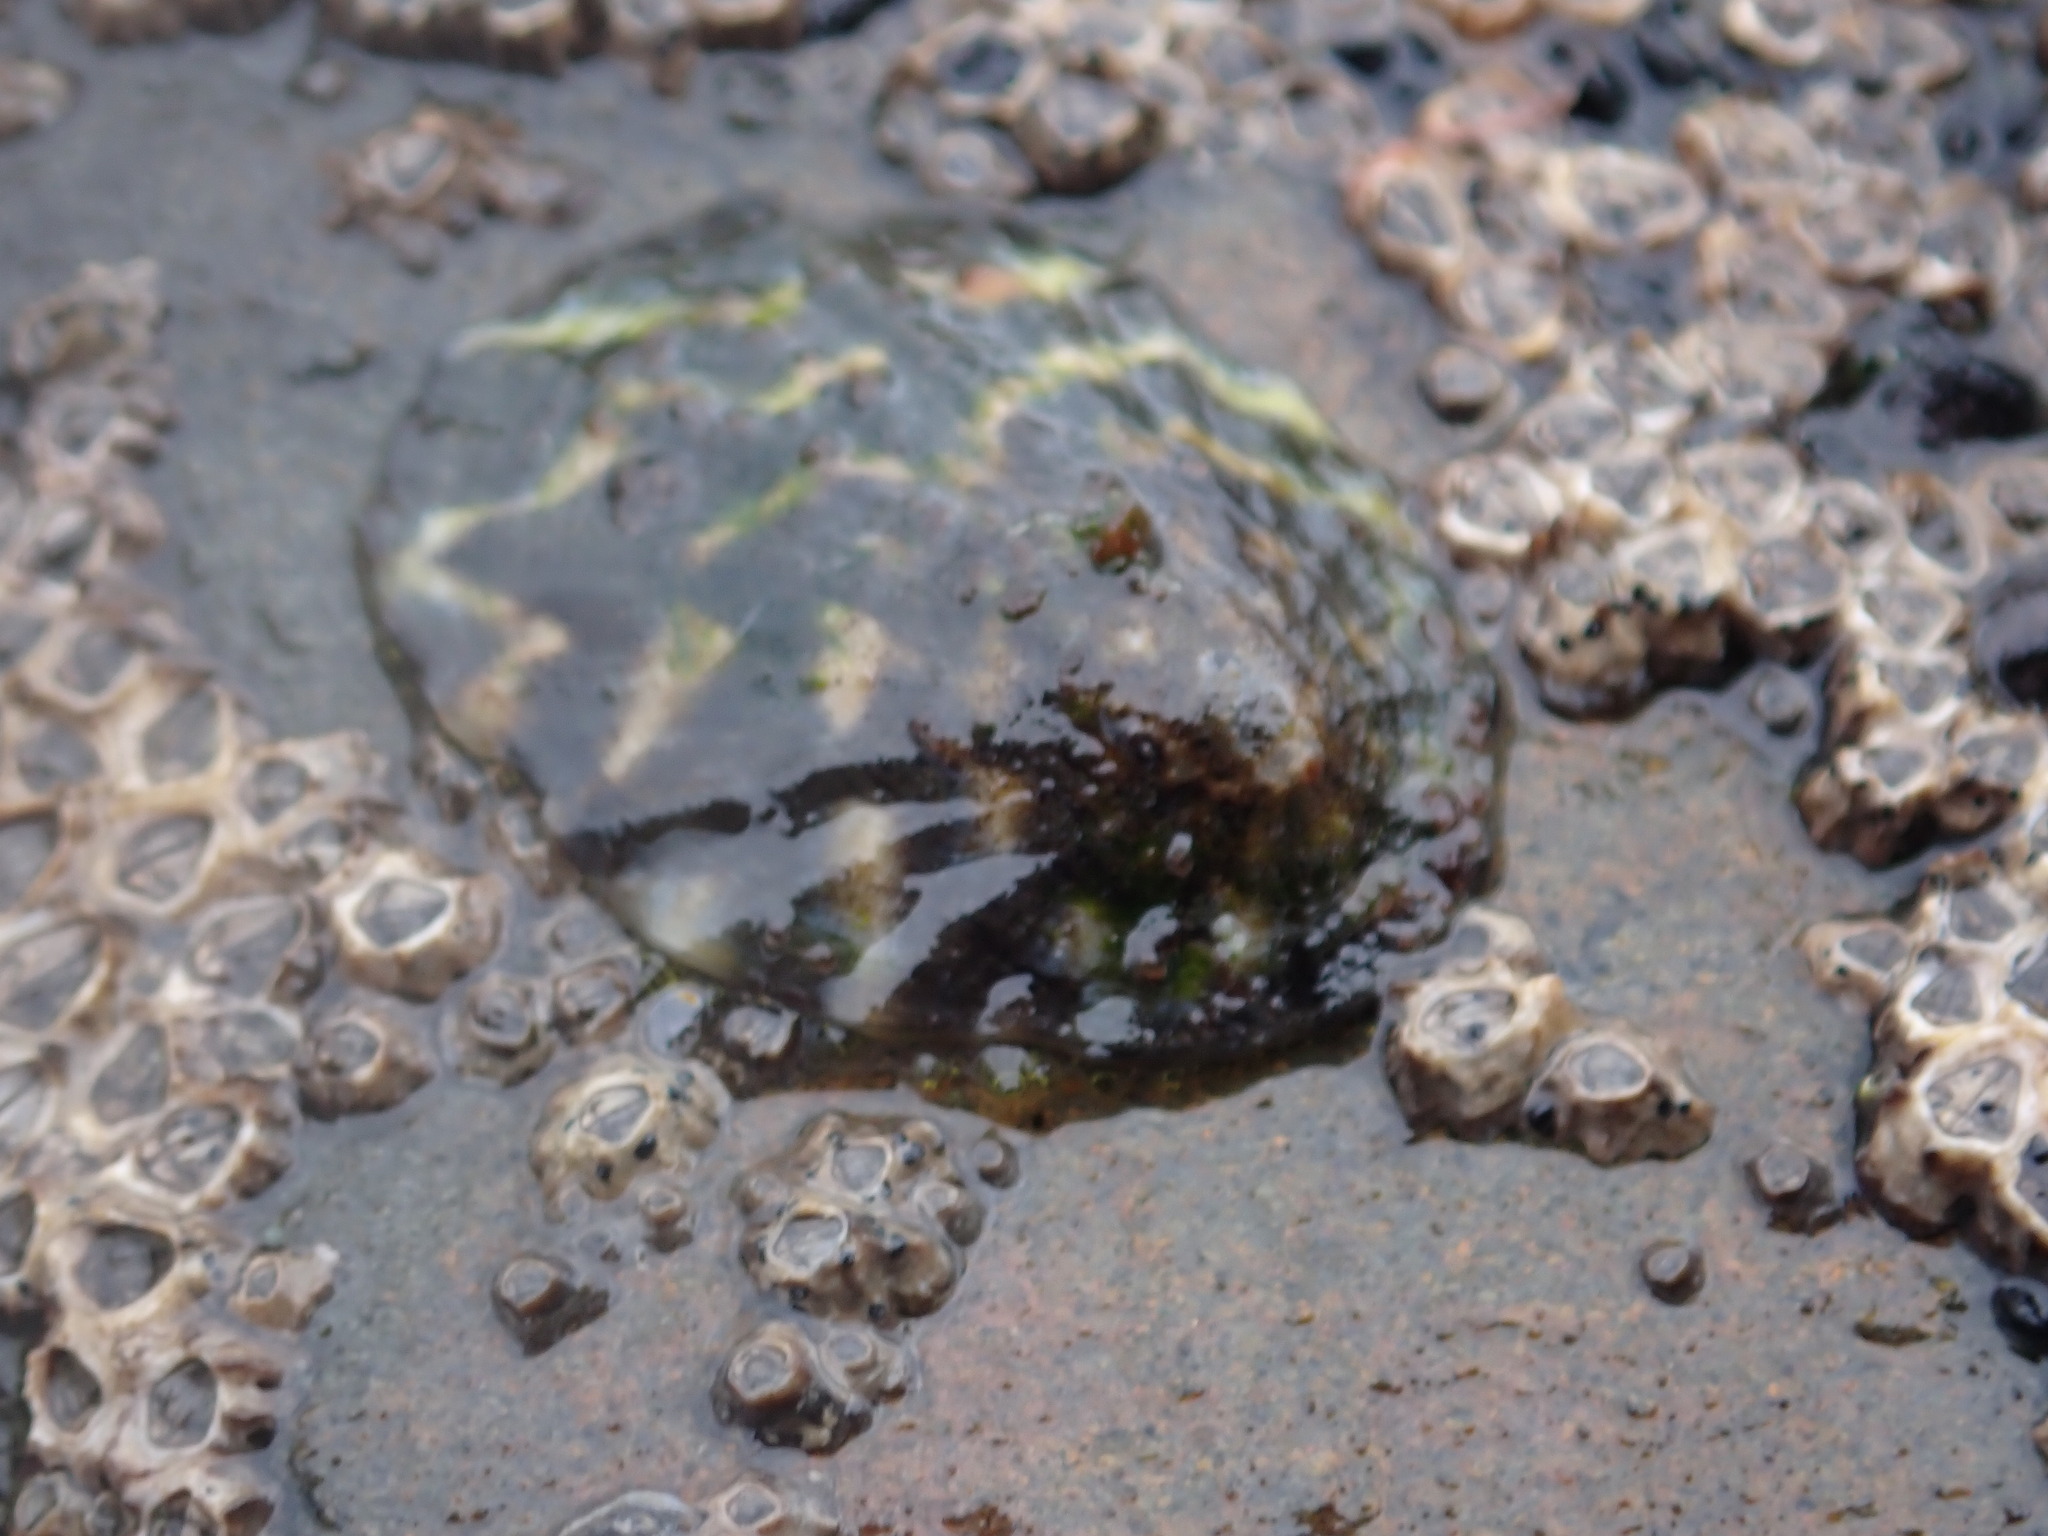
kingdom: Animalia
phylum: Mollusca
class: Gastropoda
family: Nacellidae
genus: Cellana
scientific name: Cellana radians
